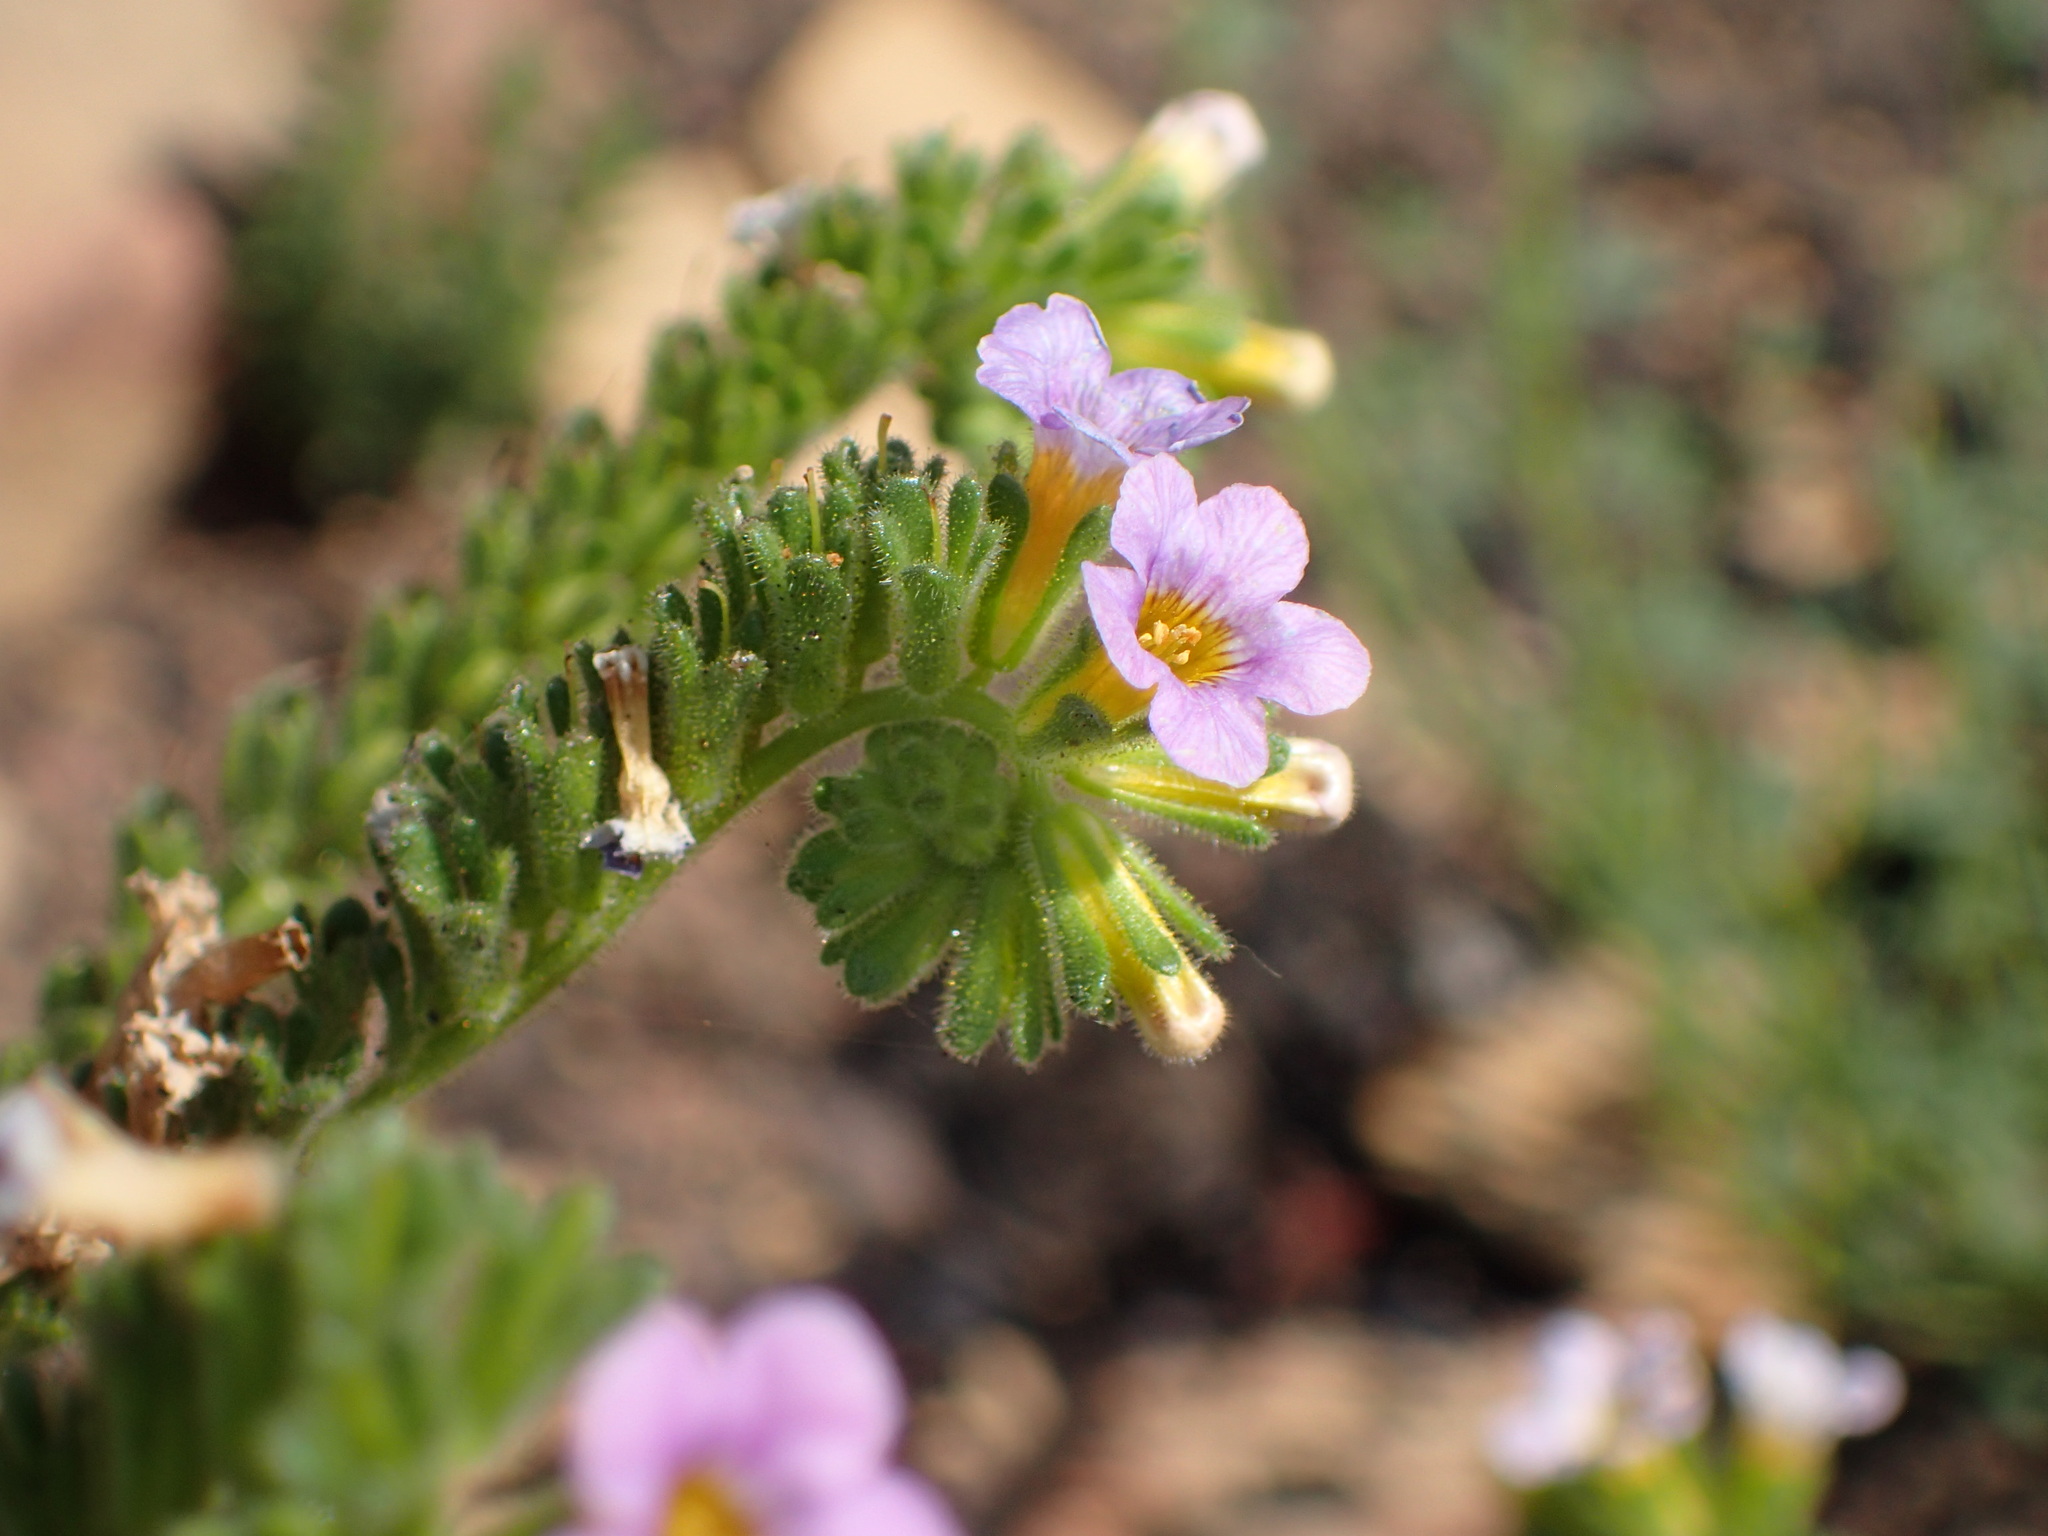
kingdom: Plantae
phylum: Tracheophyta
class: Magnoliopsida
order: Boraginales
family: Hydrophyllaceae
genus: Phacelia
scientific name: Phacelia brachyloba
